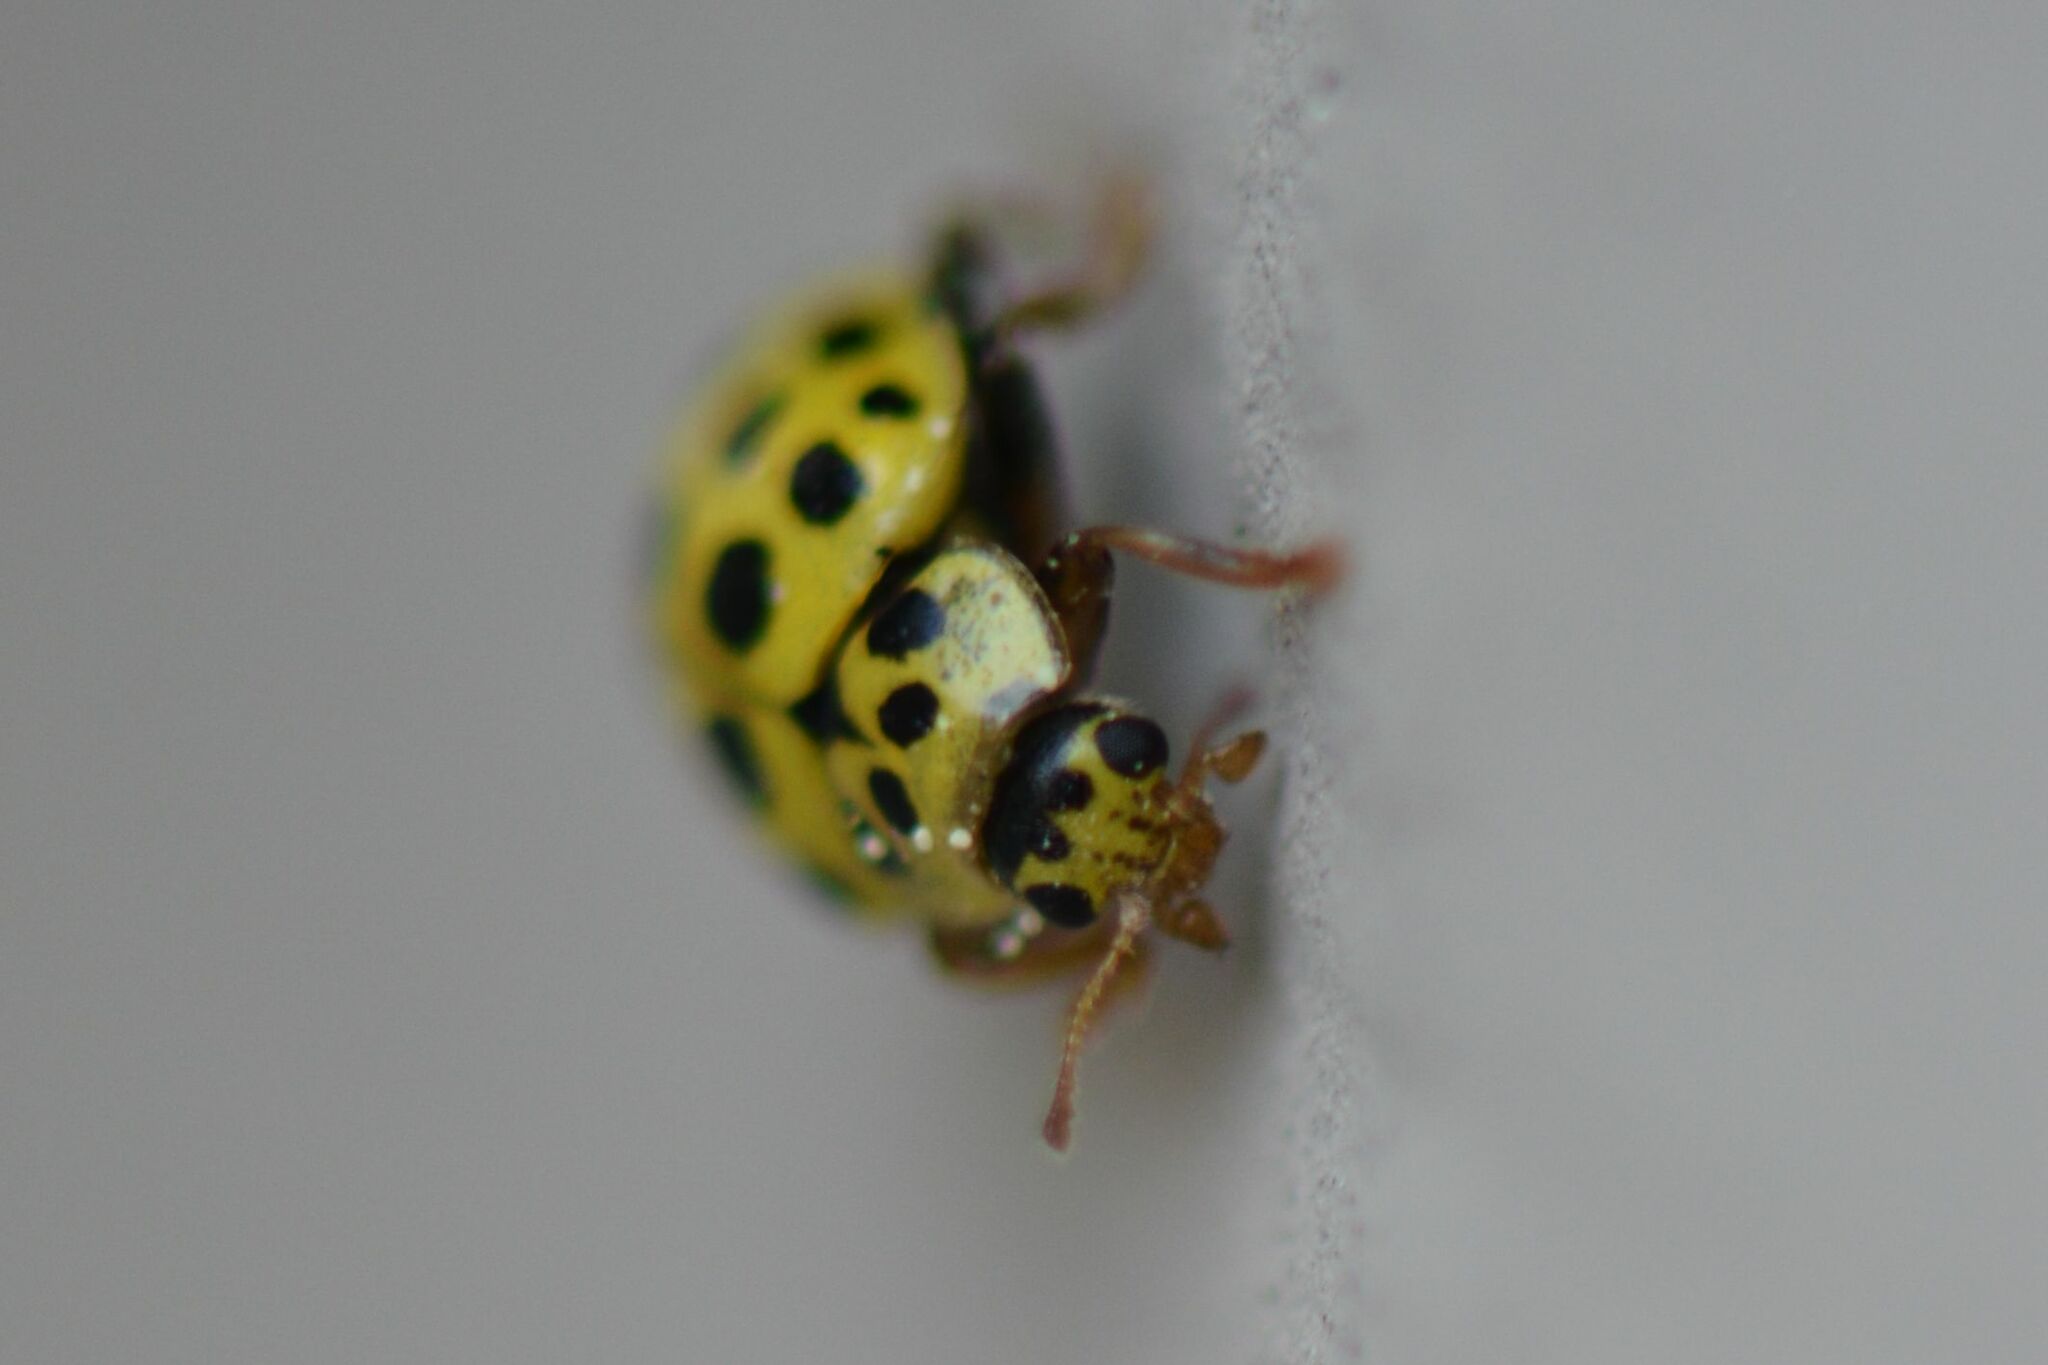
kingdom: Animalia
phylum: Arthropoda
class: Insecta
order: Coleoptera
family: Coccinellidae
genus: Psyllobora
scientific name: Psyllobora vigintiduopunctata
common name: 22-spot ladybird
